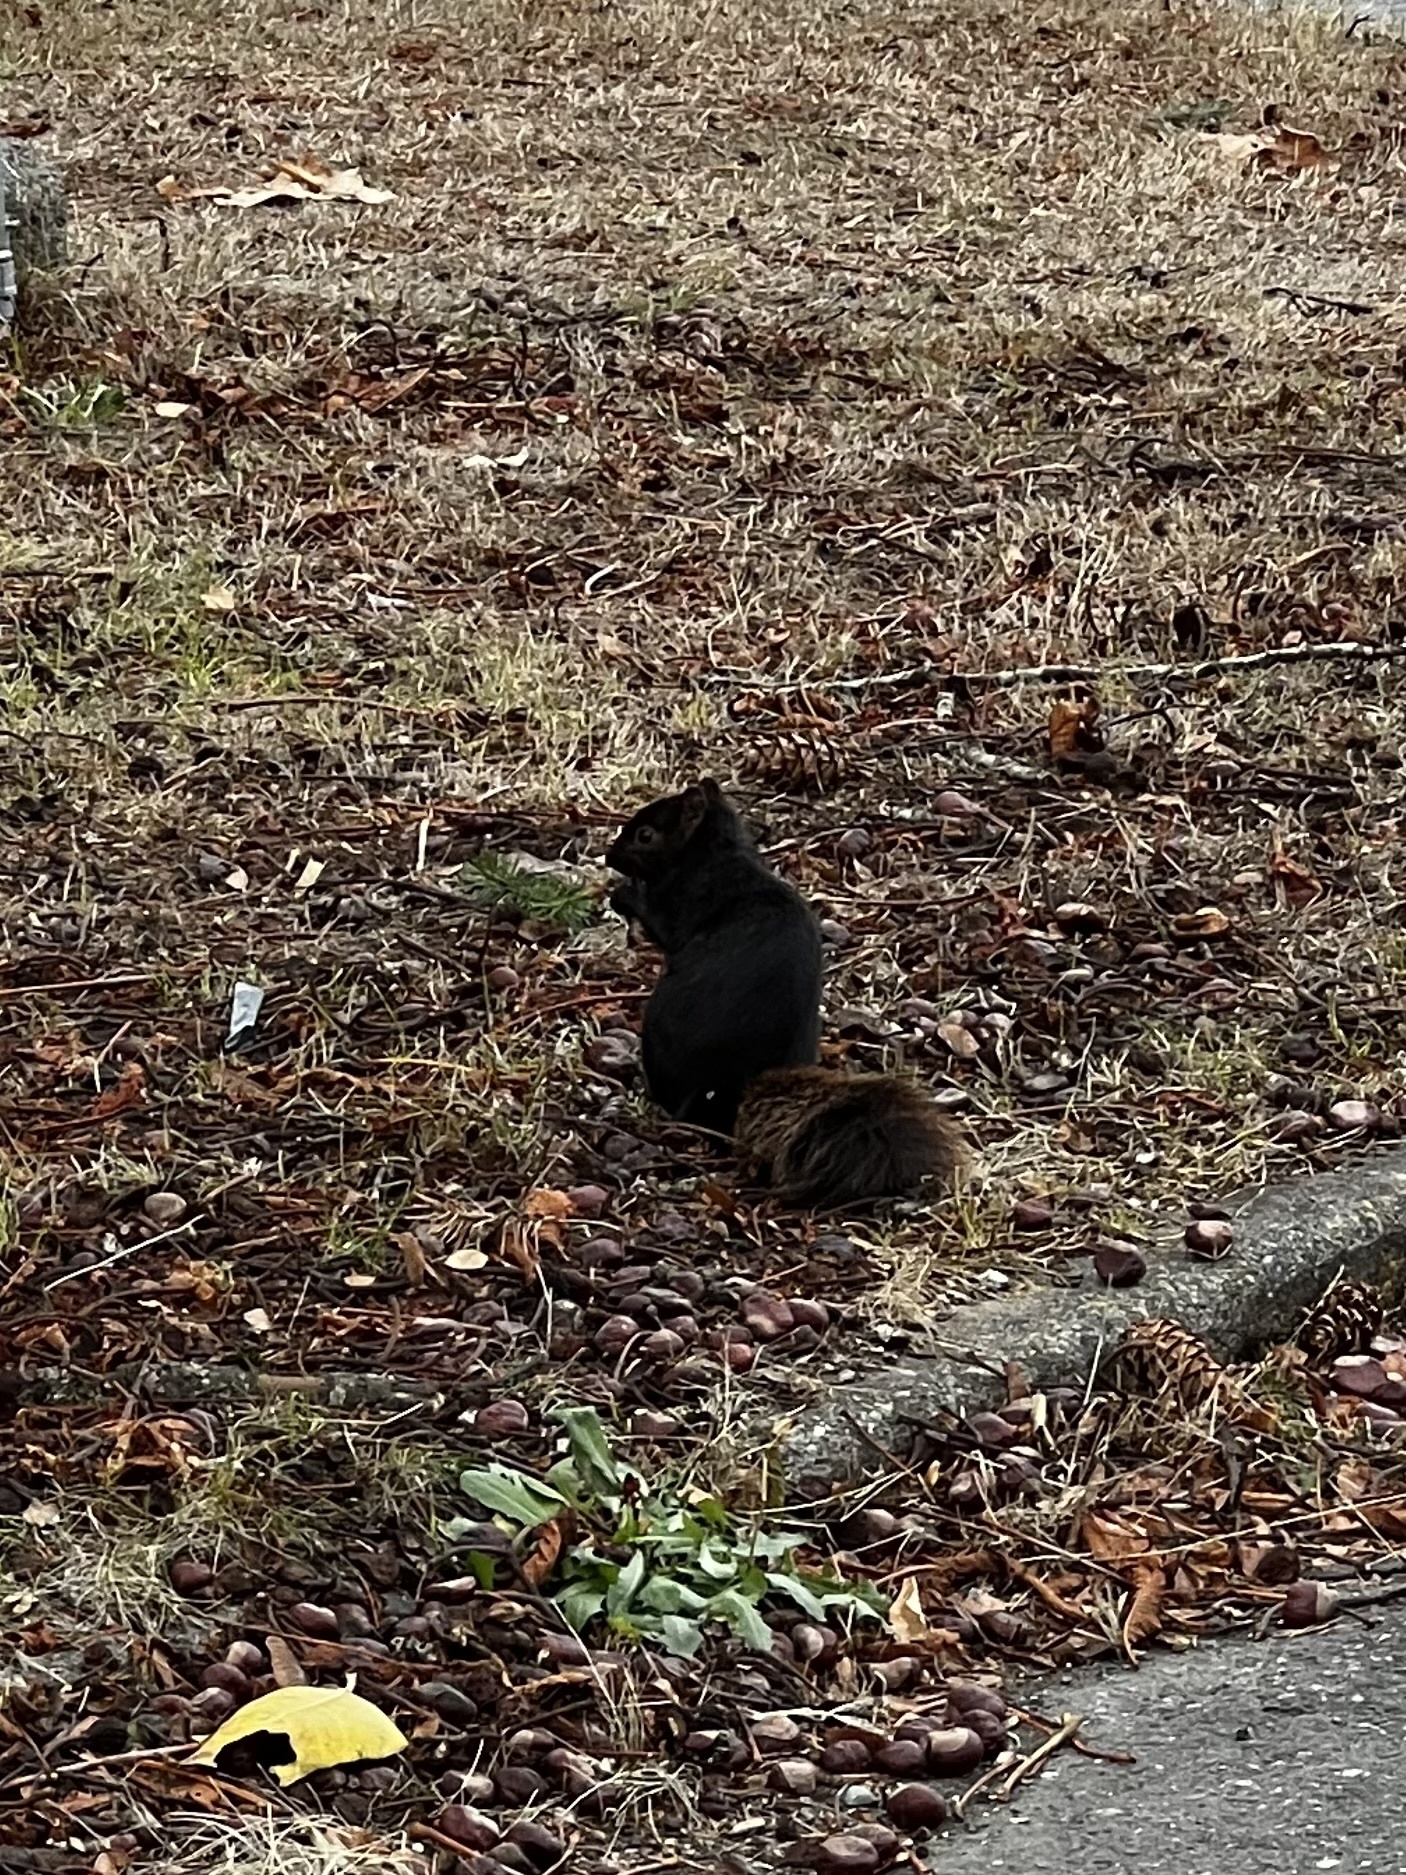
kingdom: Animalia
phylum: Chordata
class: Mammalia
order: Rodentia
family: Sciuridae
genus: Sciurus
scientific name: Sciurus carolinensis
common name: Eastern gray squirrel
